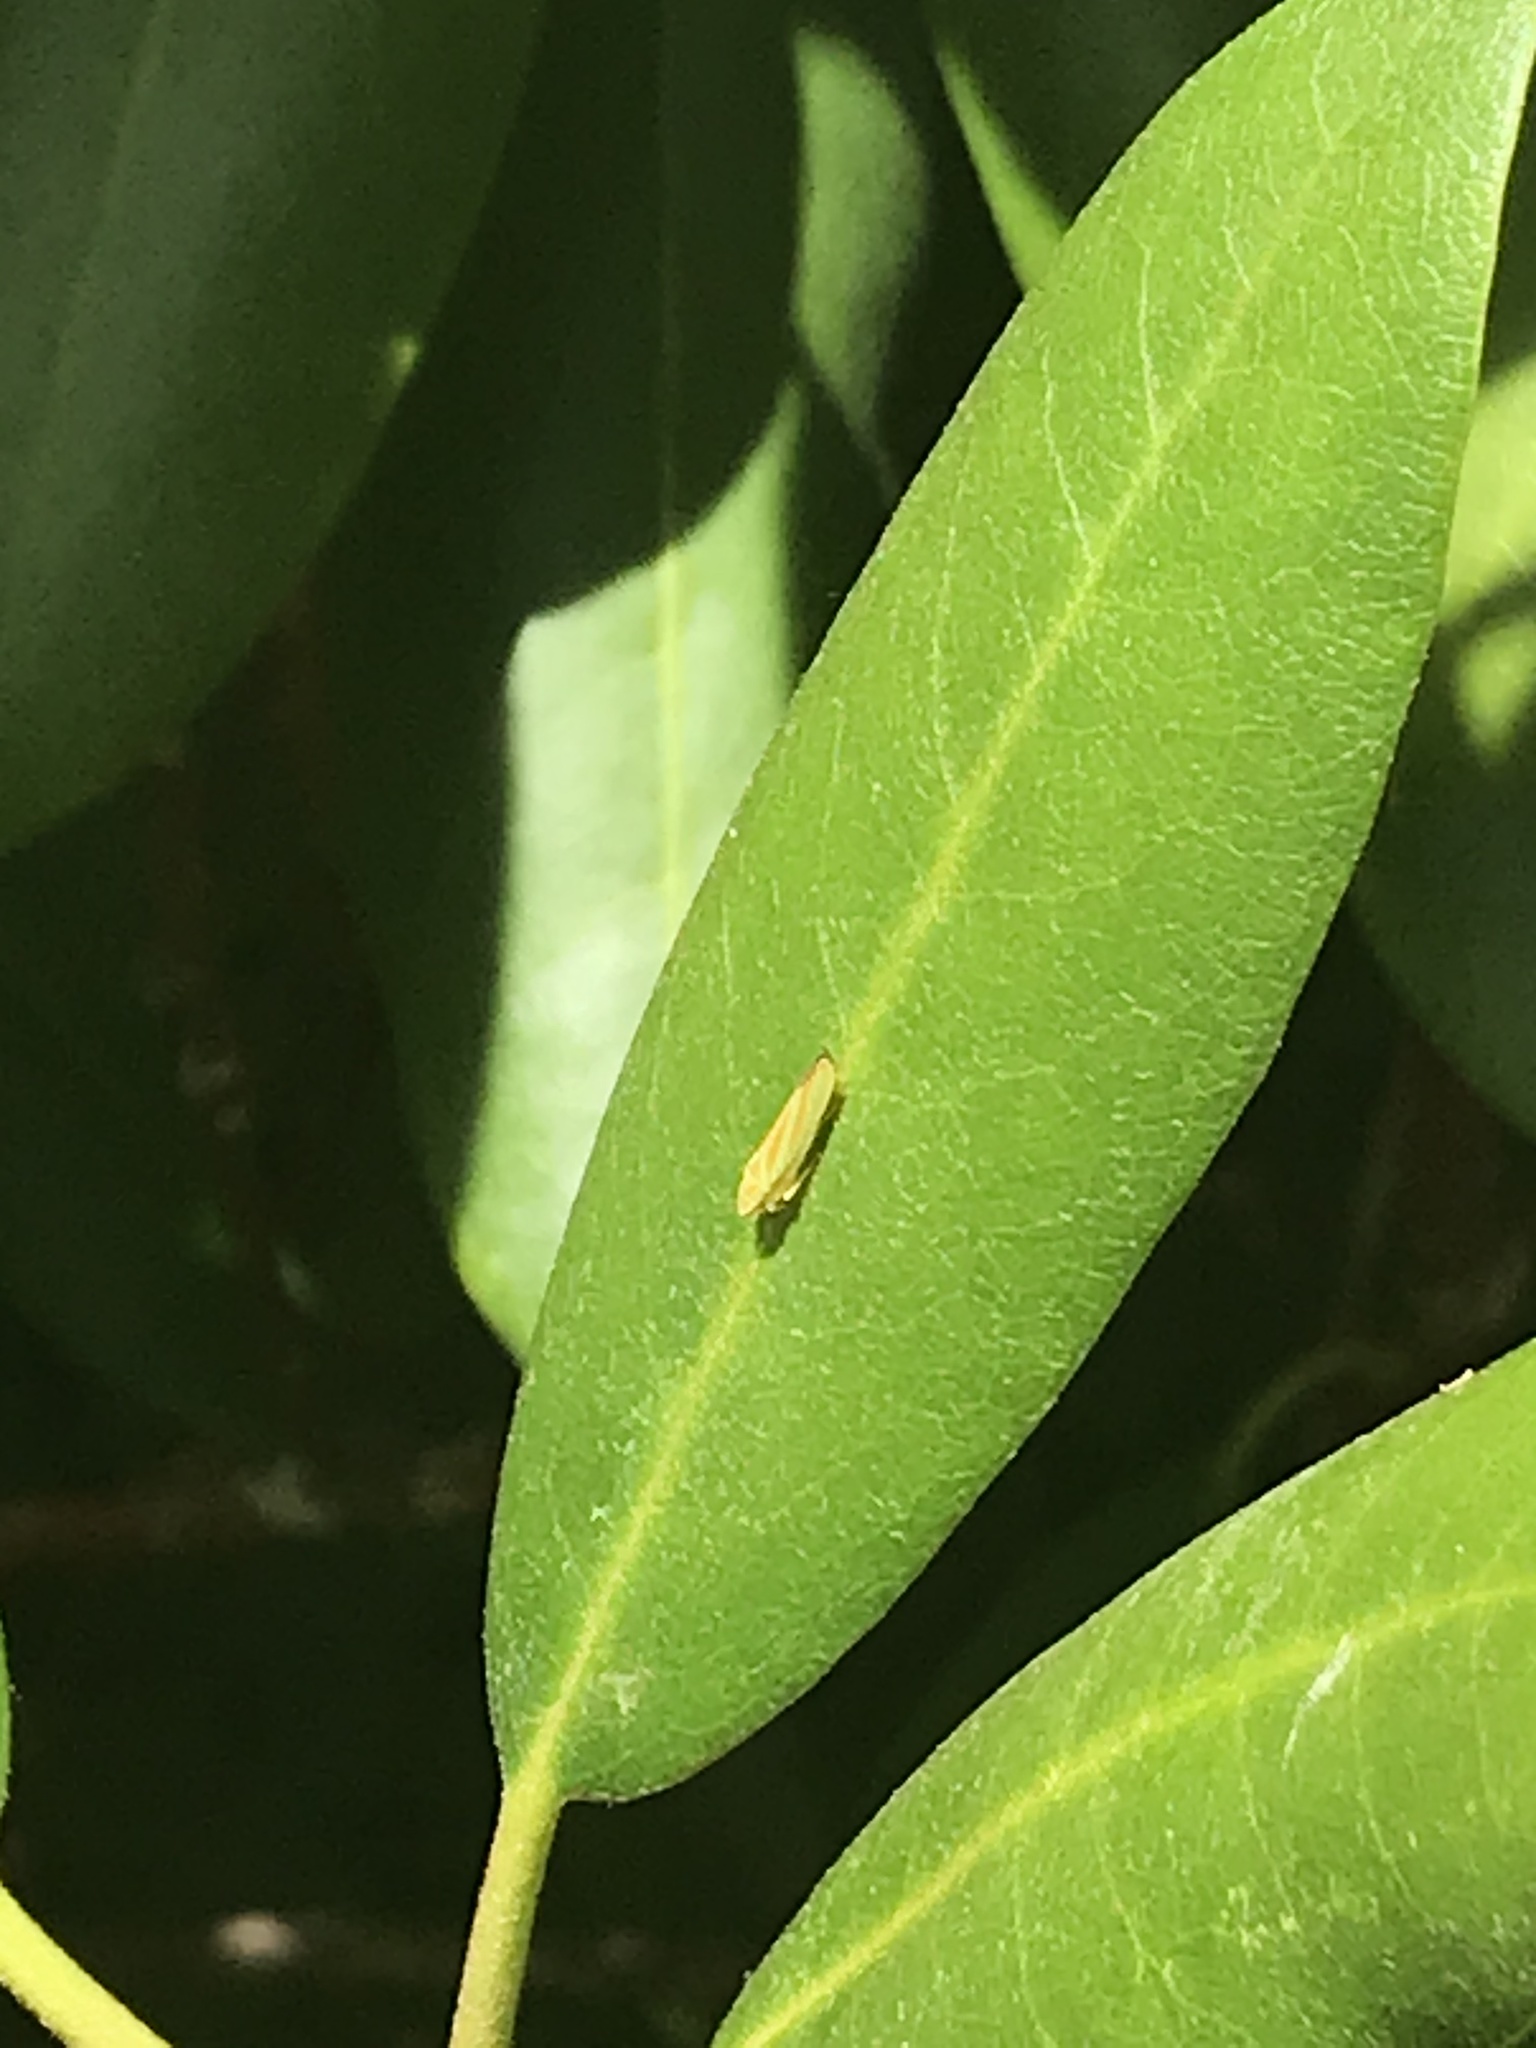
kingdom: Animalia
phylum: Arthropoda
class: Insecta
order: Hemiptera
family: Cicadellidae
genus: Graphocephala
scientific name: Graphocephala fennahi
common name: Rhododendron leafhopper
